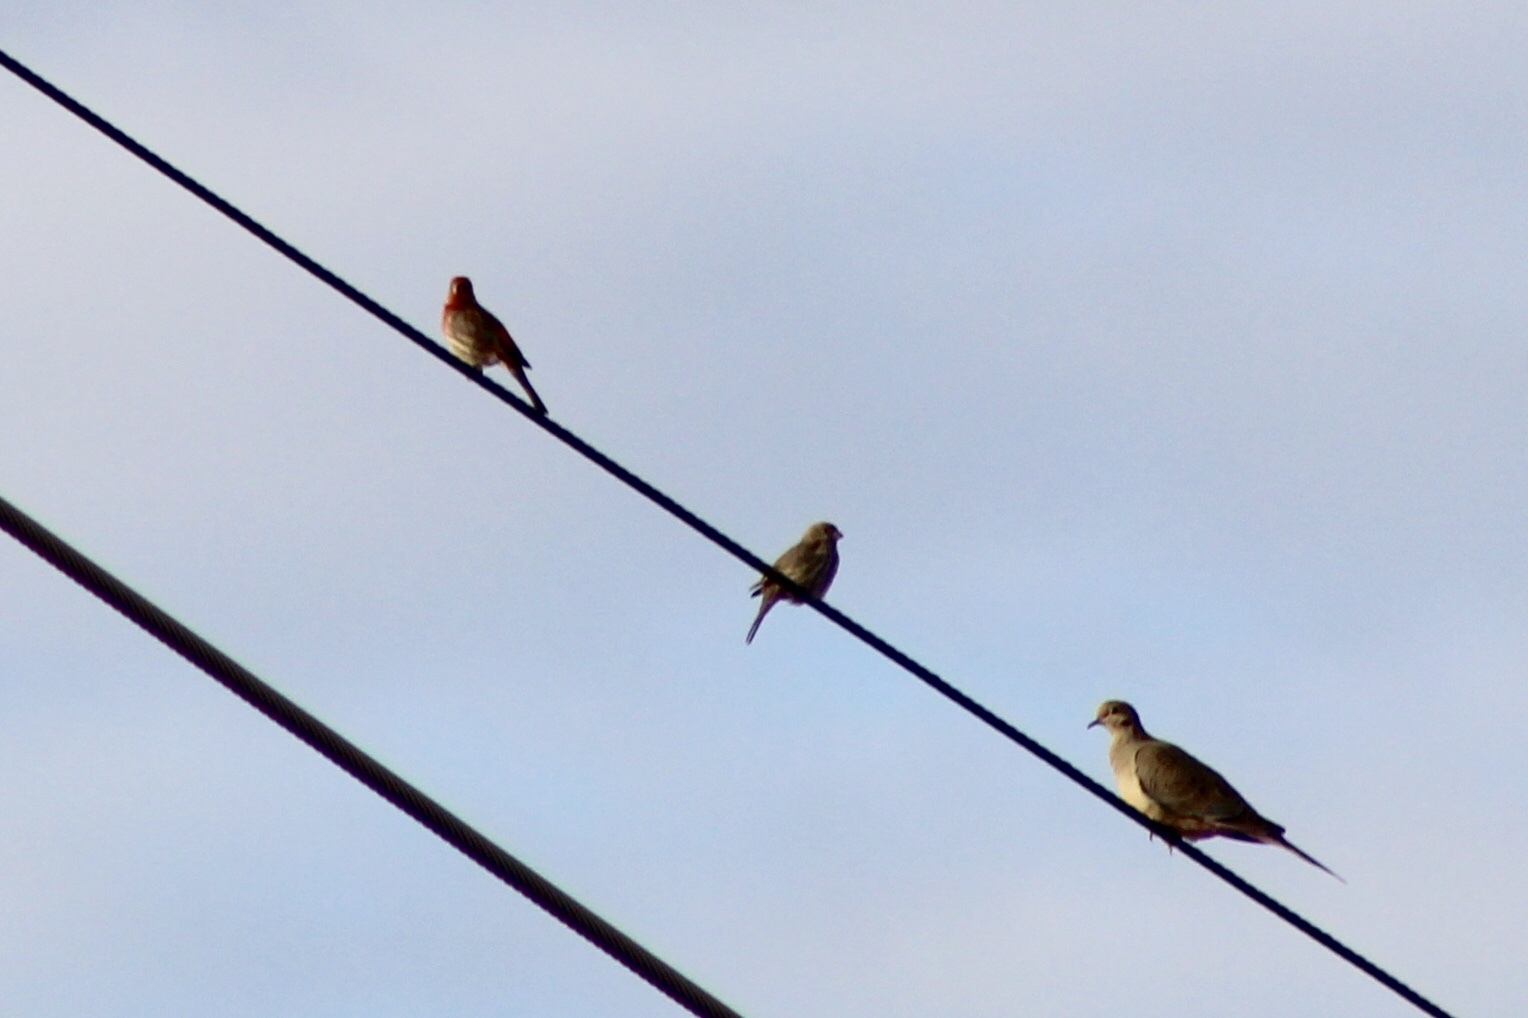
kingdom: Animalia
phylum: Chordata
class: Aves
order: Passeriformes
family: Fringillidae
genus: Haemorhous
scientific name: Haemorhous mexicanus
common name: House finch
